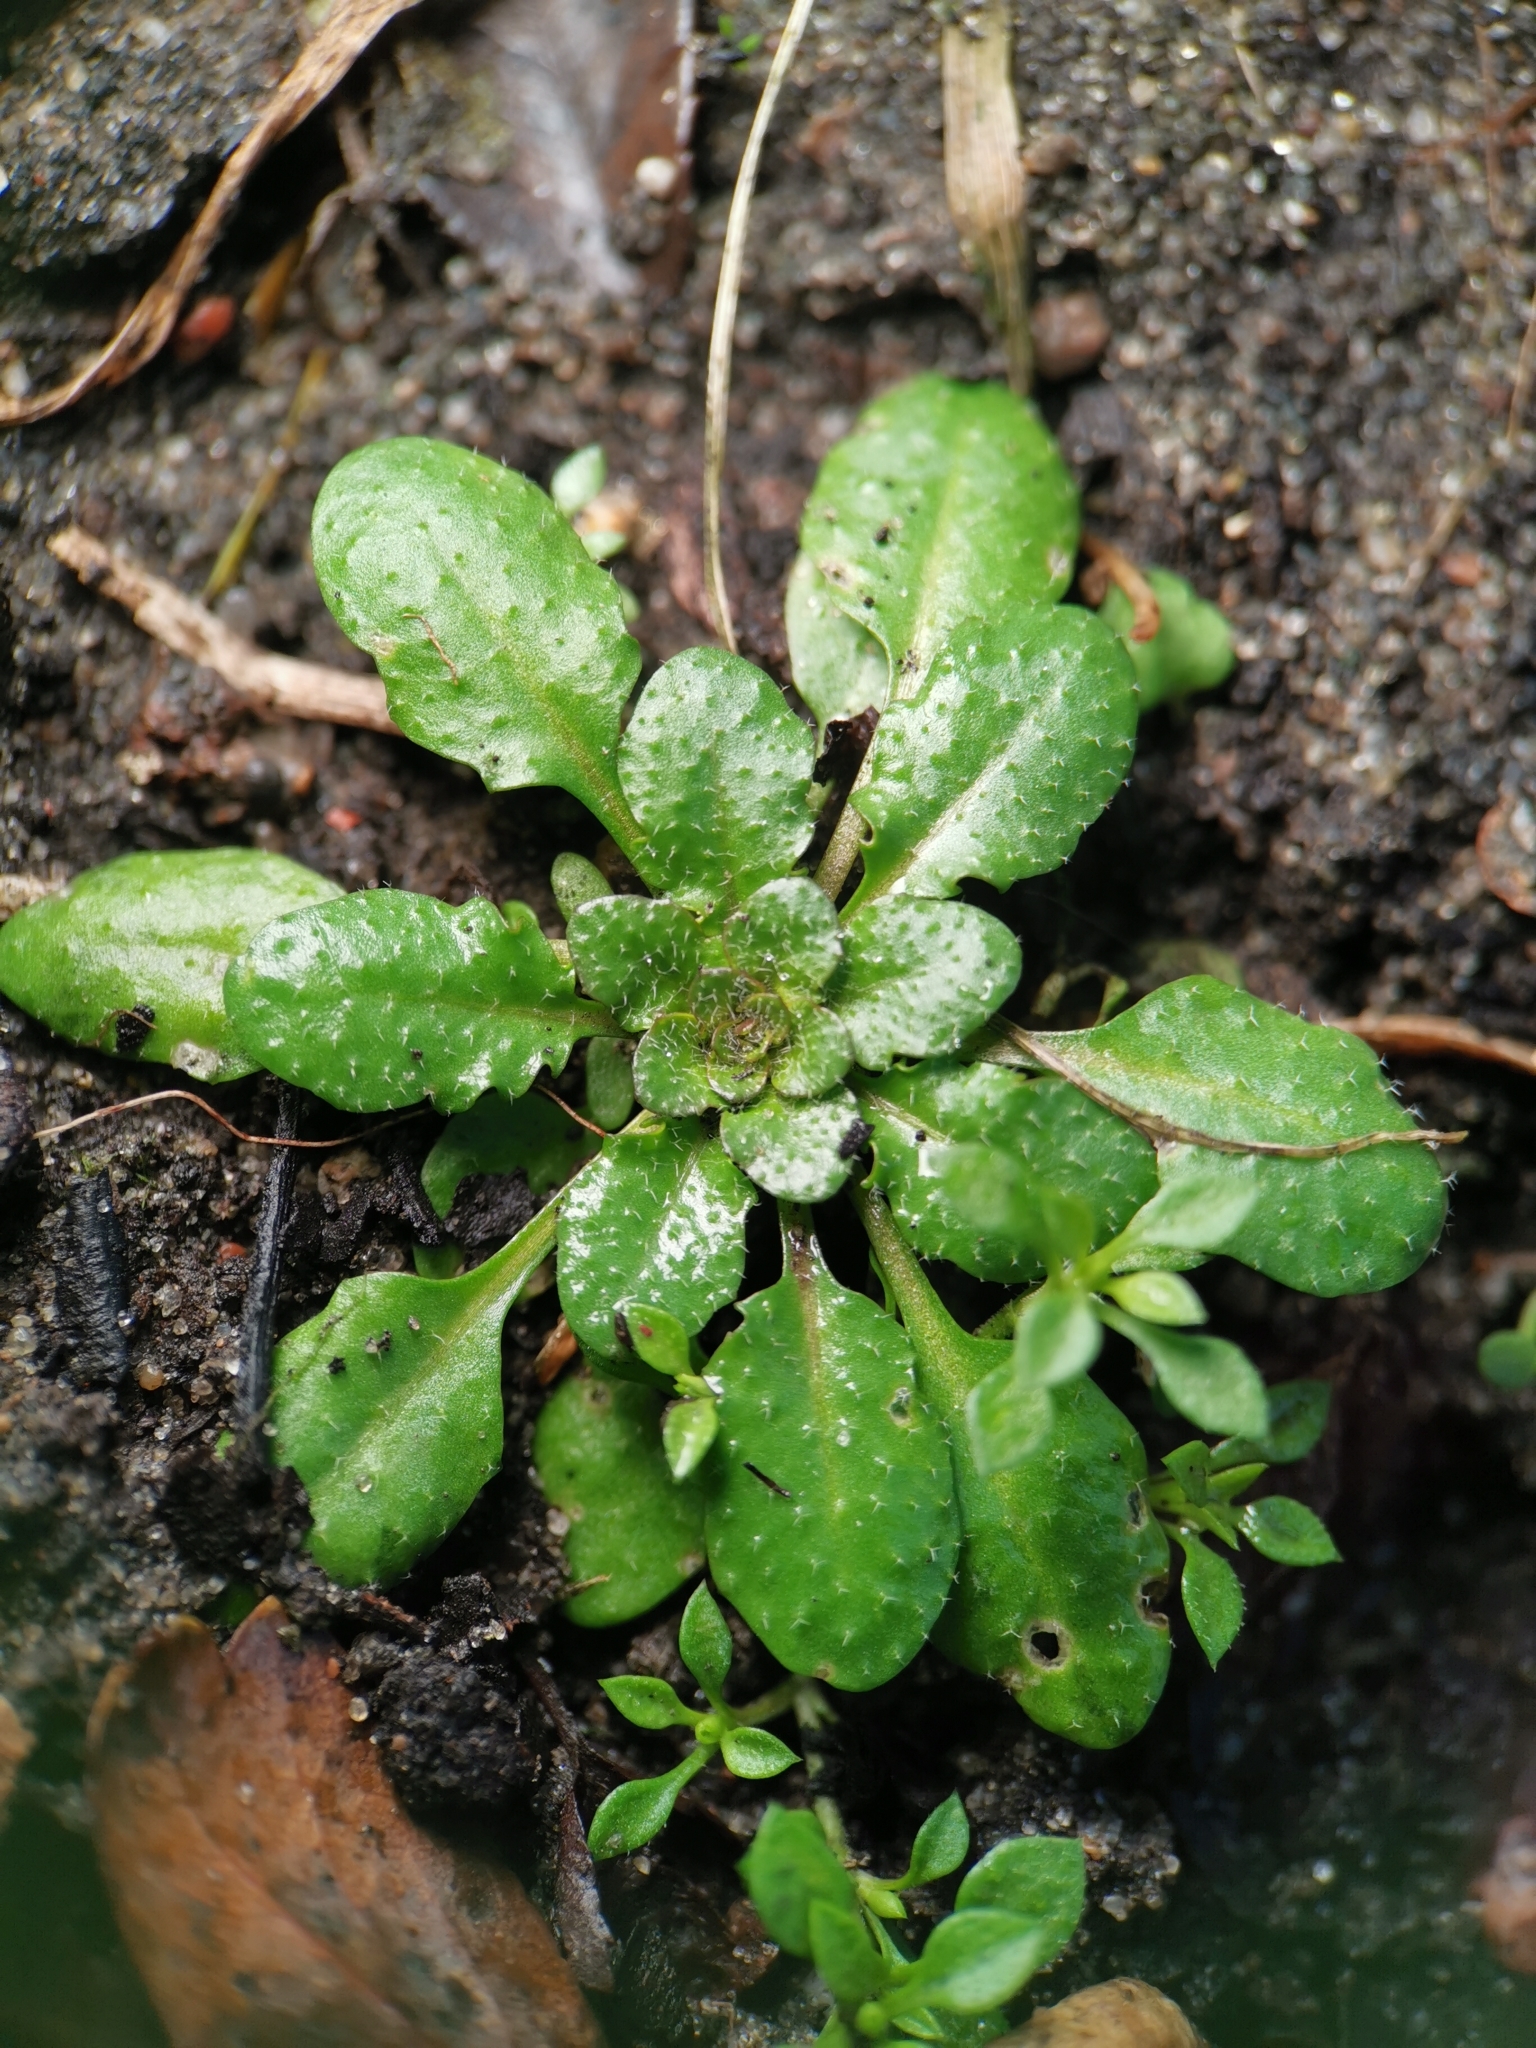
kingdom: Plantae
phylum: Tracheophyta
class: Magnoliopsida
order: Brassicales
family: Brassicaceae
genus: Arabidopsis
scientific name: Arabidopsis thaliana
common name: Thale cress
